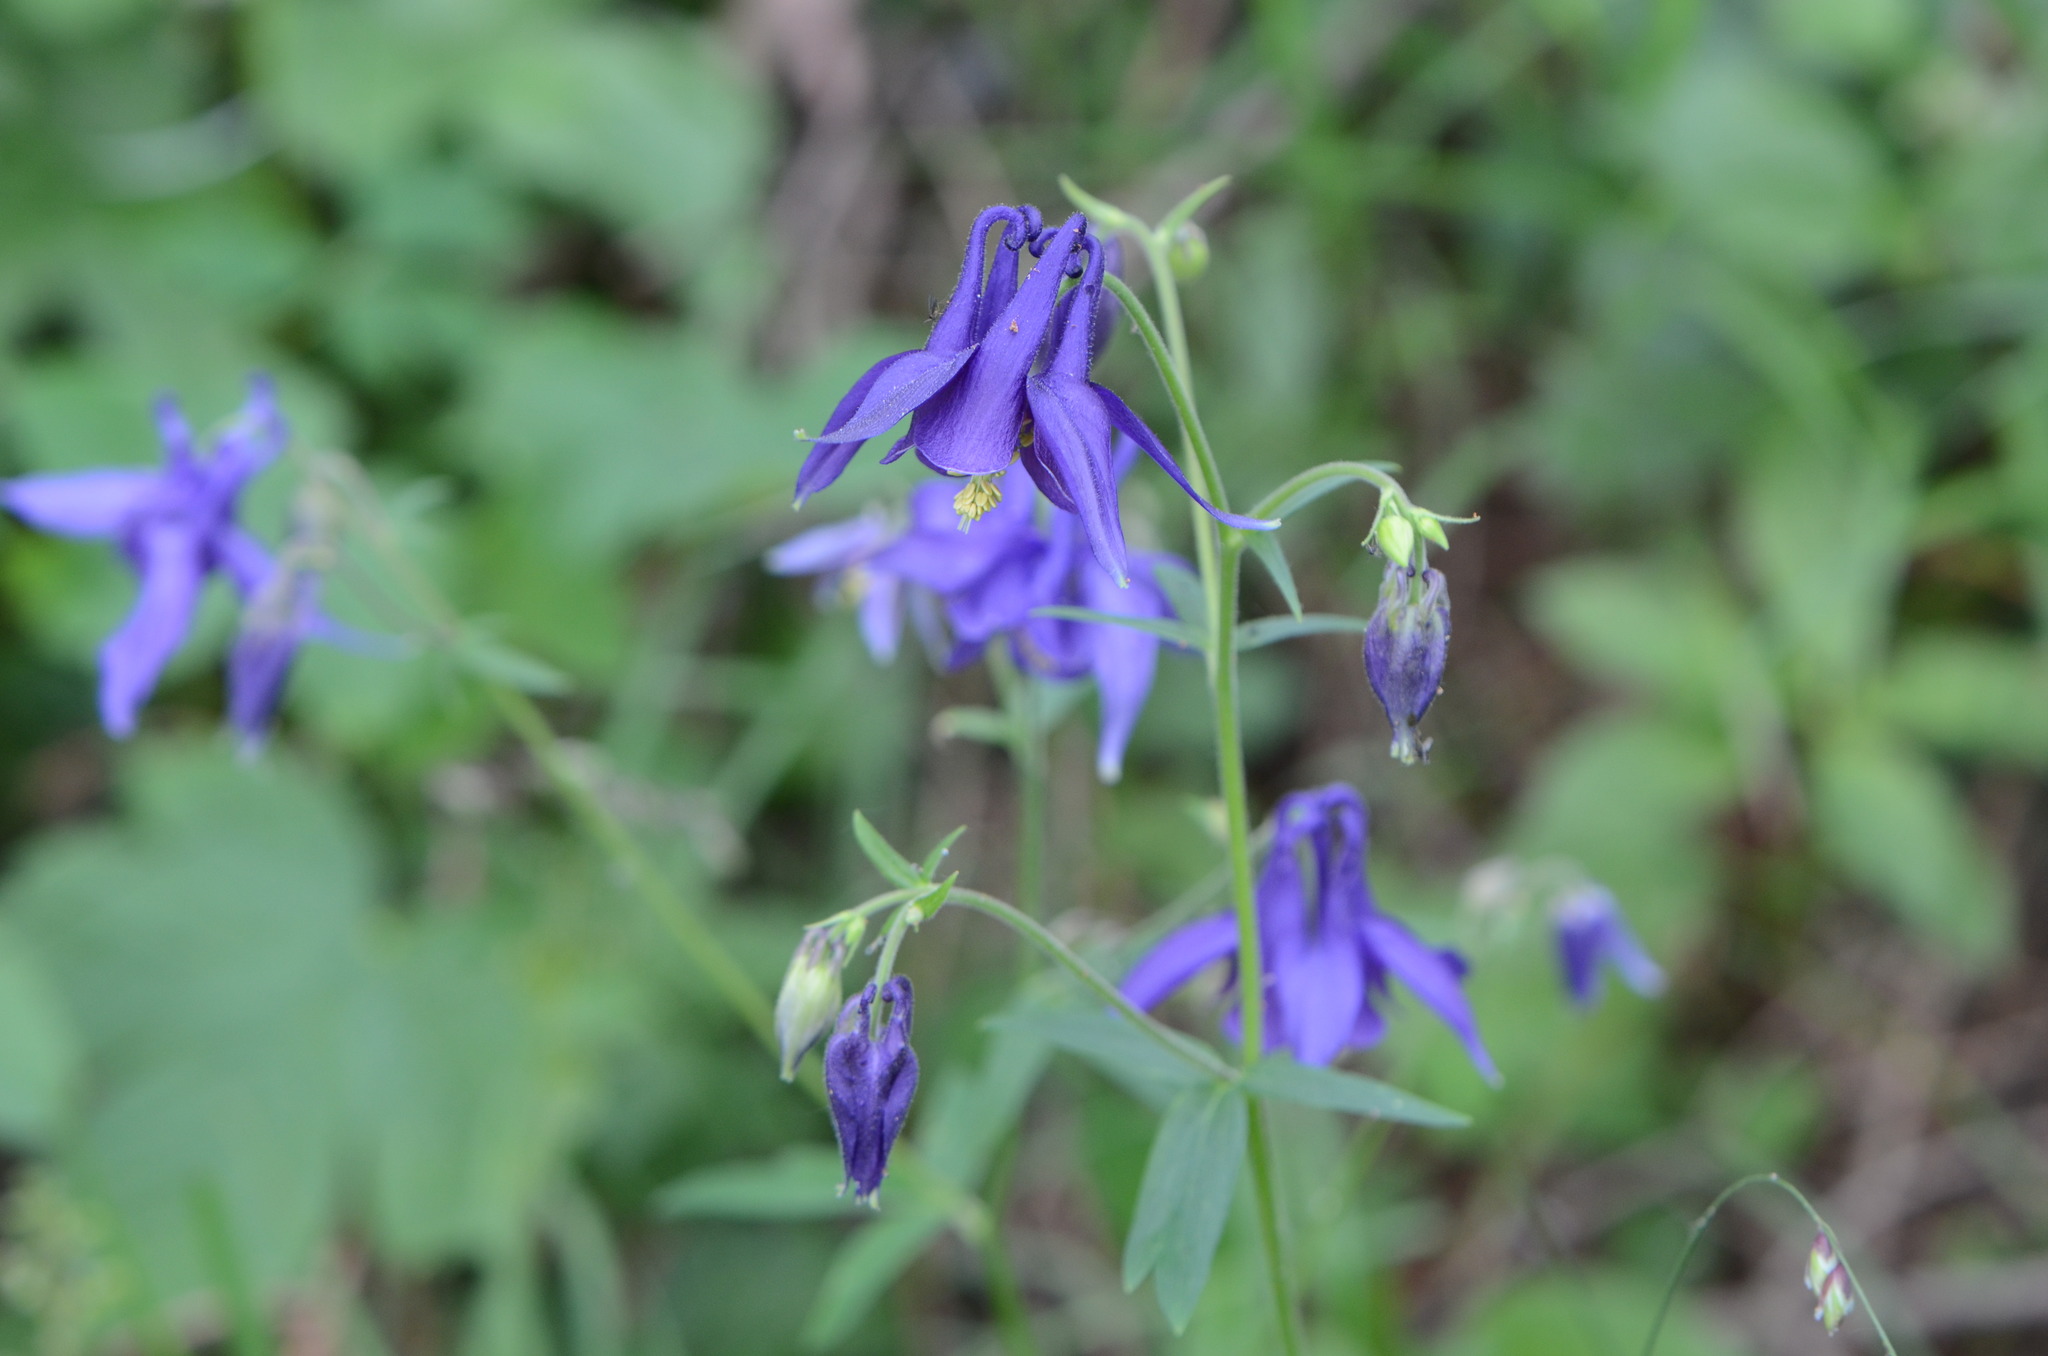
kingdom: Plantae
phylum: Tracheophyta
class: Magnoliopsida
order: Ranunculales
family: Ranunculaceae
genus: Aquilegia
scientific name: Aquilegia vulgaris
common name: Columbine
